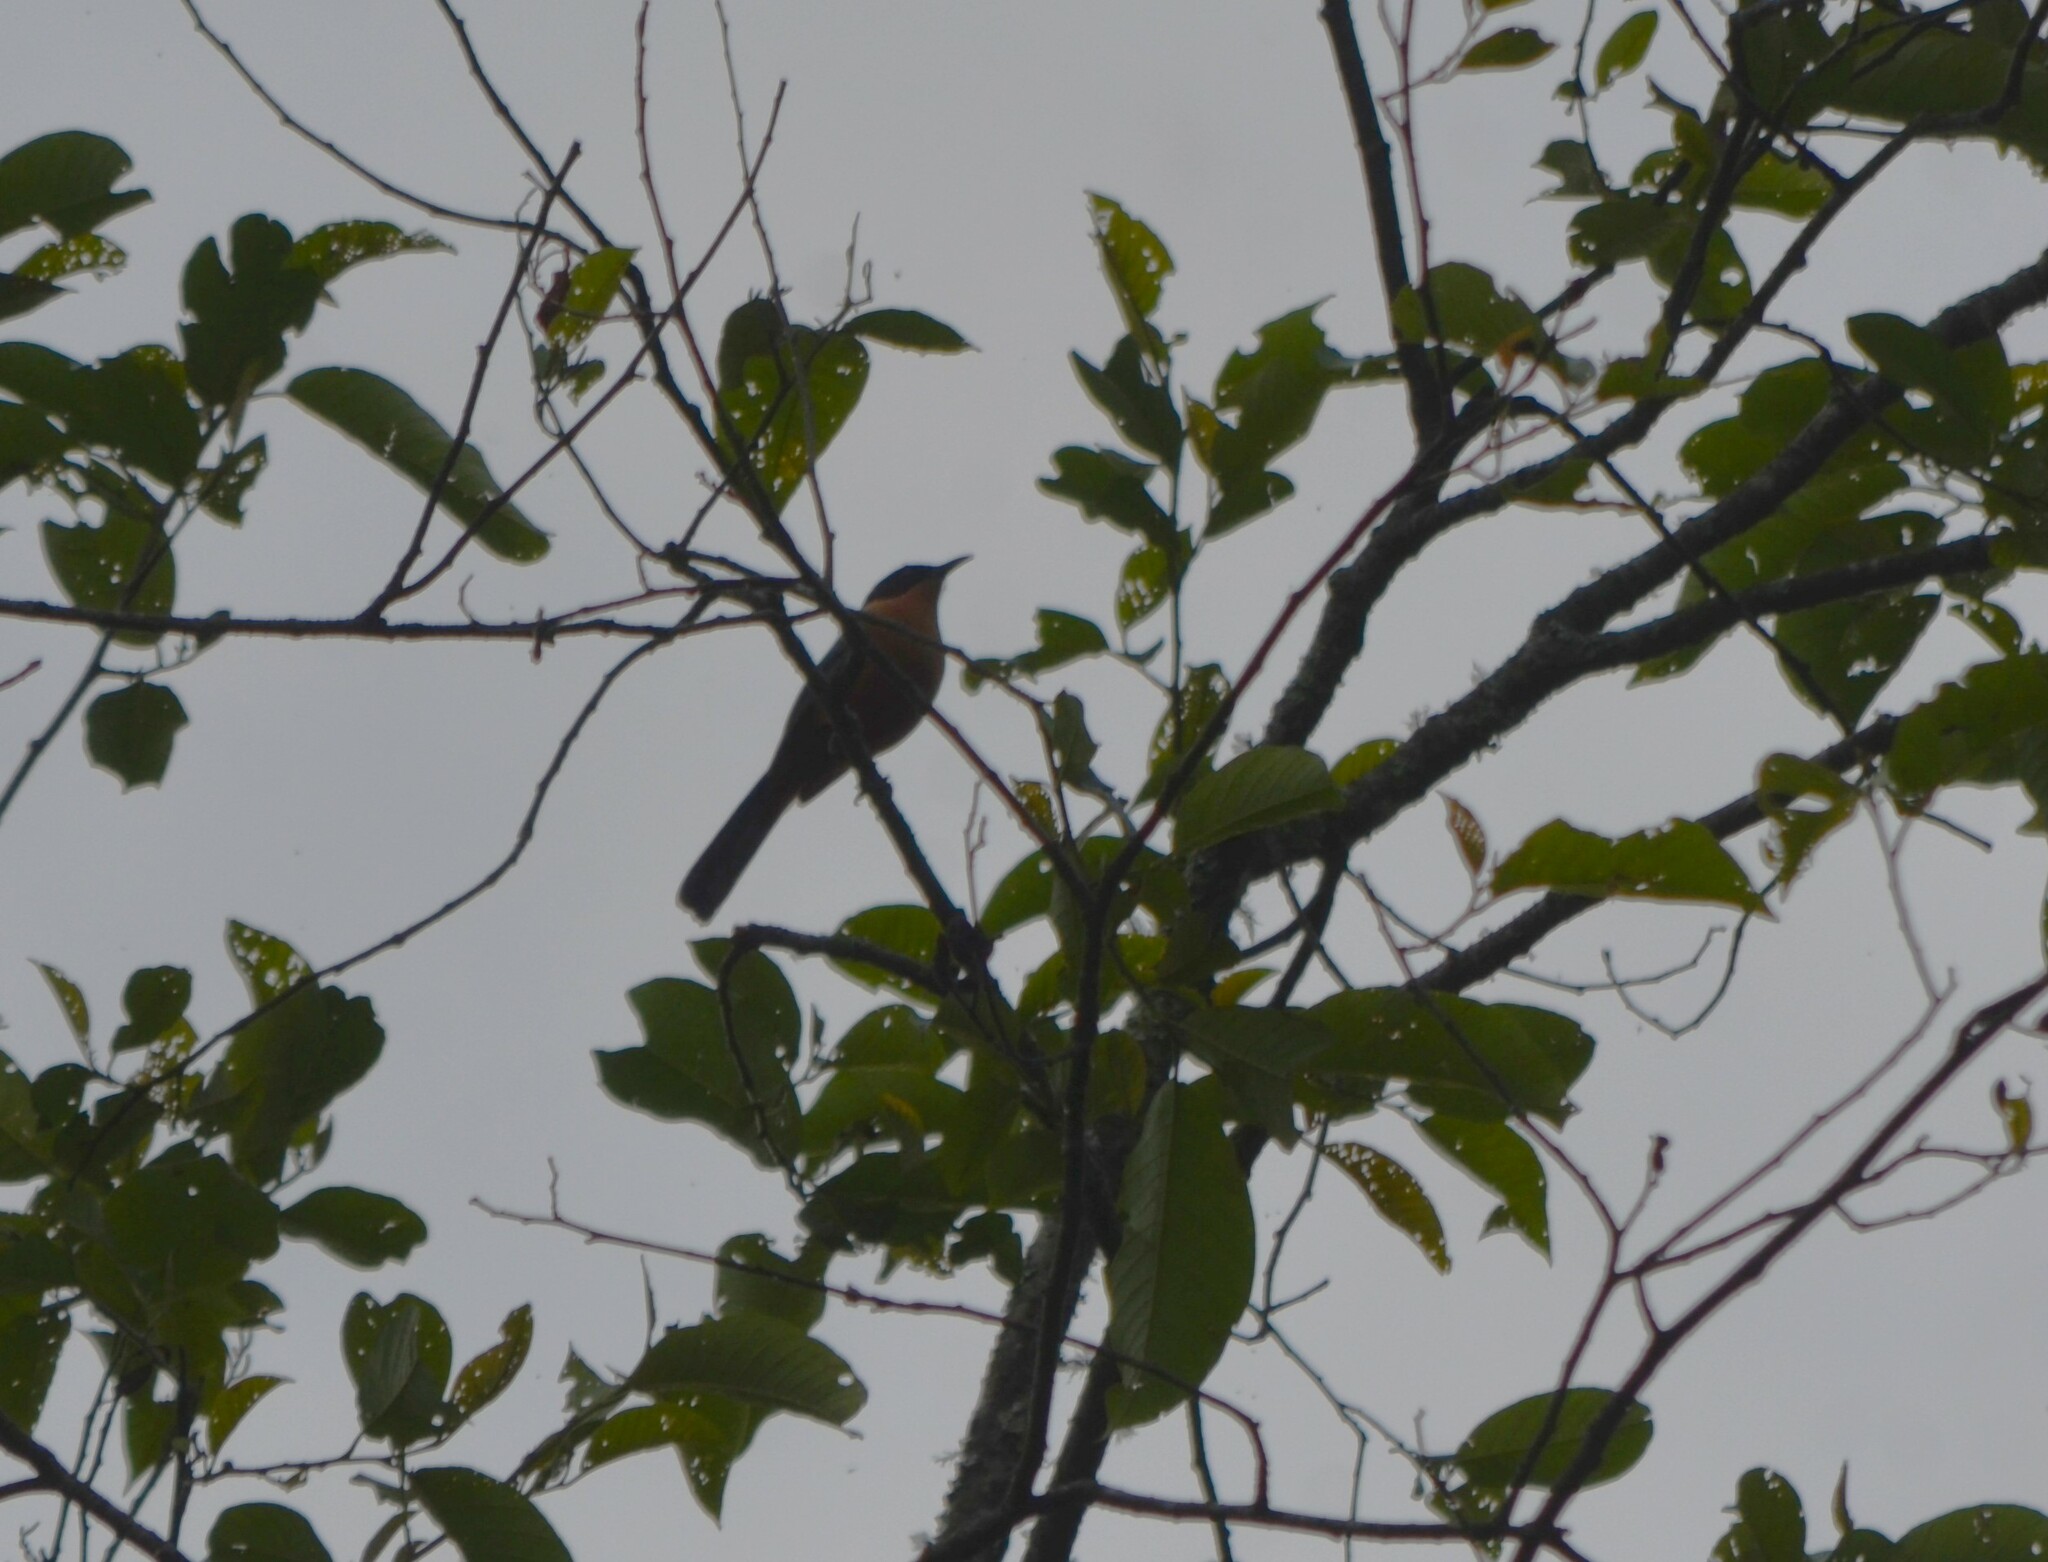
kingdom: Animalia
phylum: Chordata
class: Aves
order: Passeriformes
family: Leiothrichidae
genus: Heterophasia
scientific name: Heterophasia capistrata
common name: Rufous sibia
